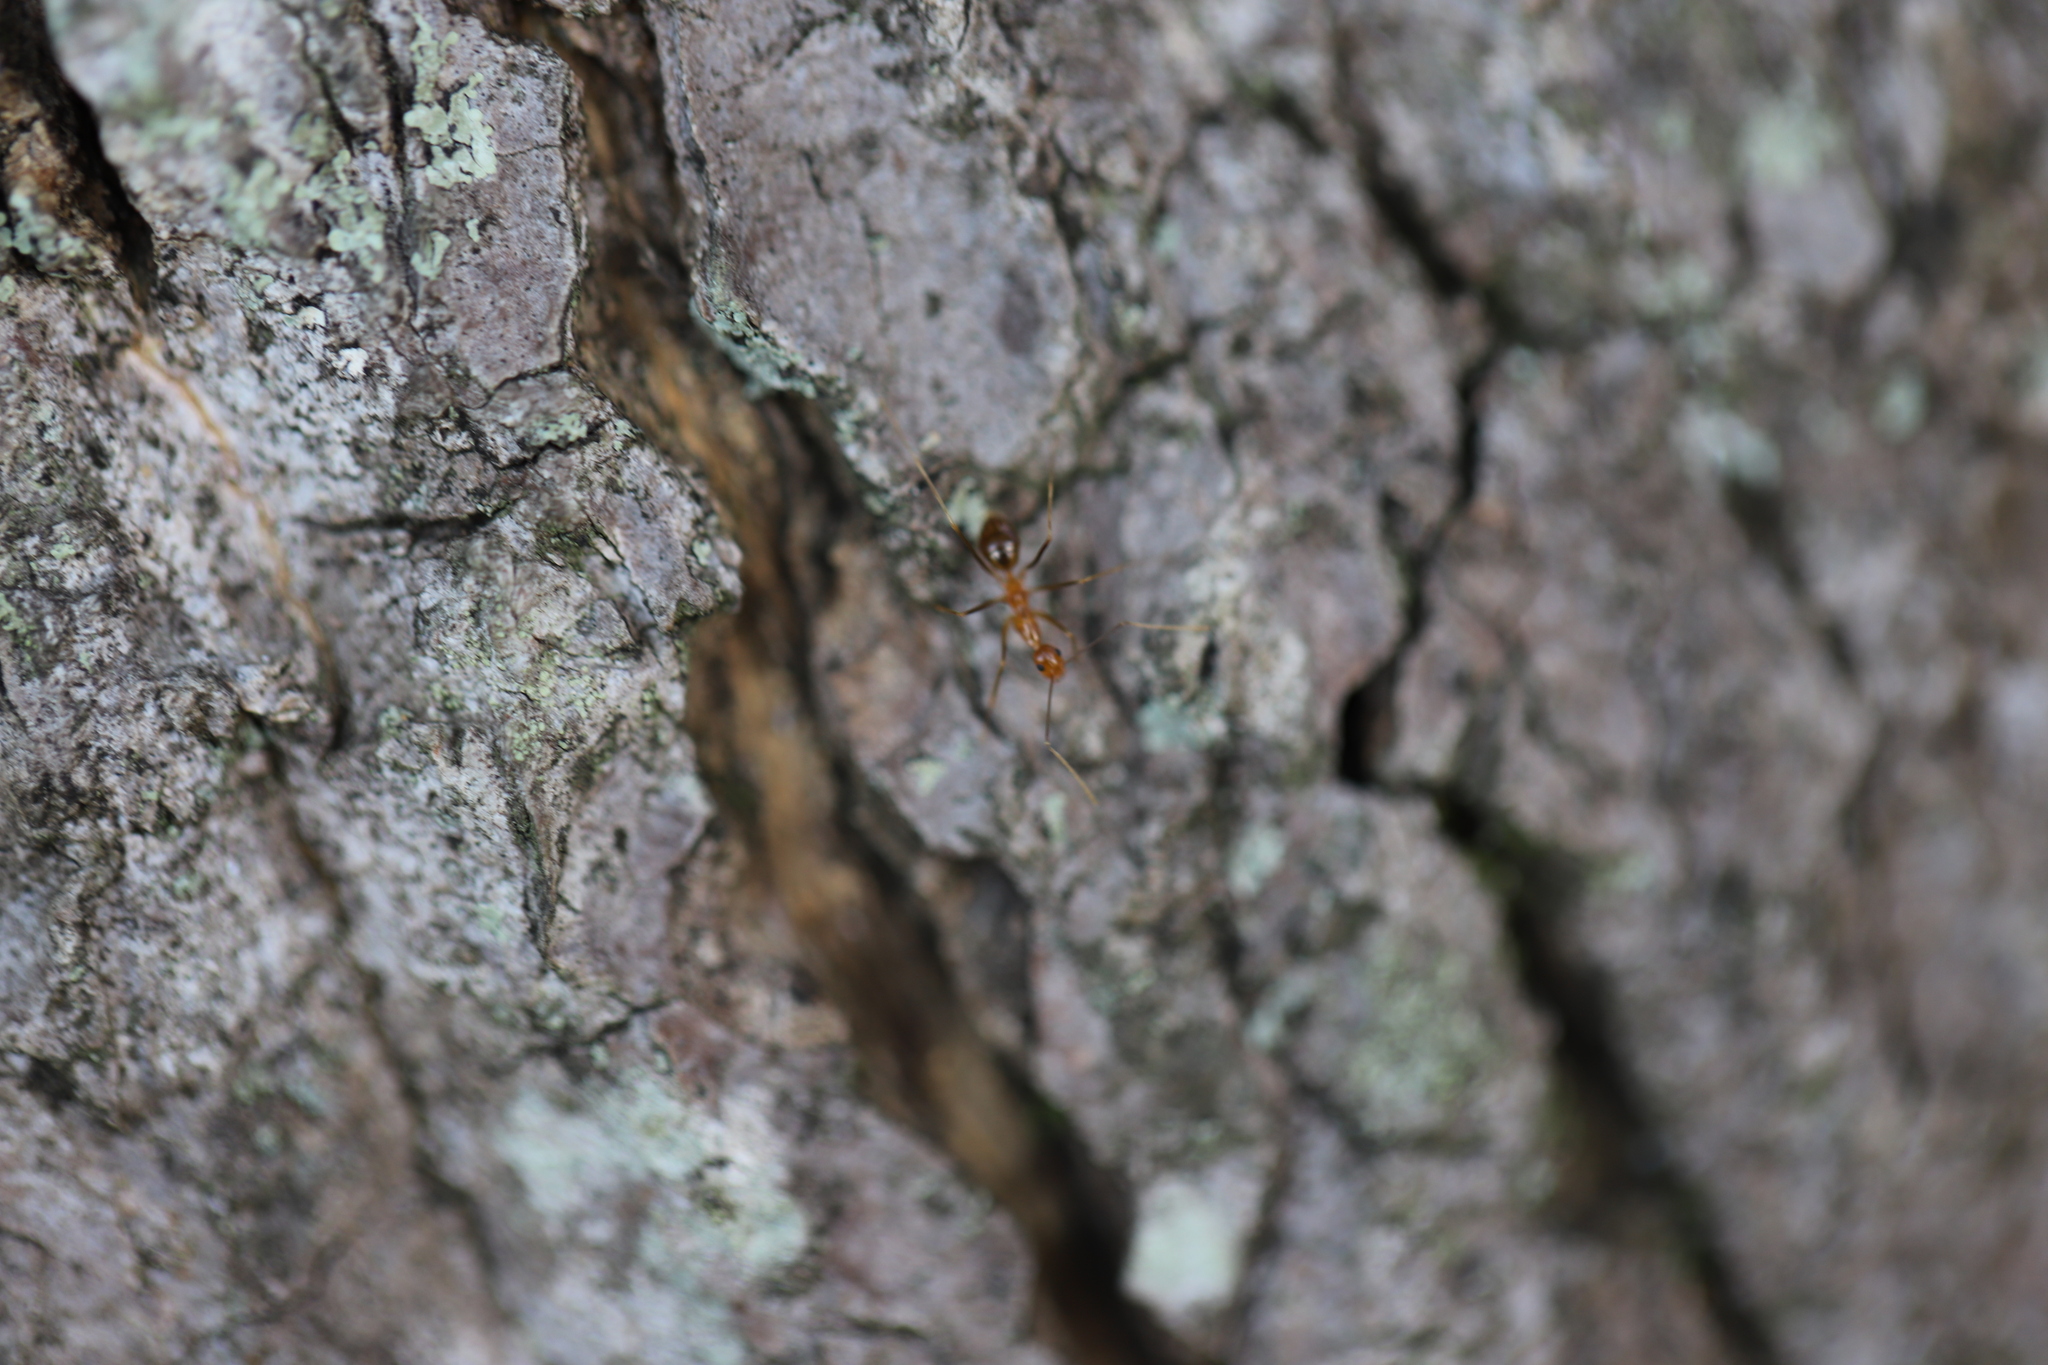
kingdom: Animalia
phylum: Arthropoda
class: Insecta
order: Hymenoptera
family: Formicidae
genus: Anoplolepis
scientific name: Anoplolepis gracilipes
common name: Ant
